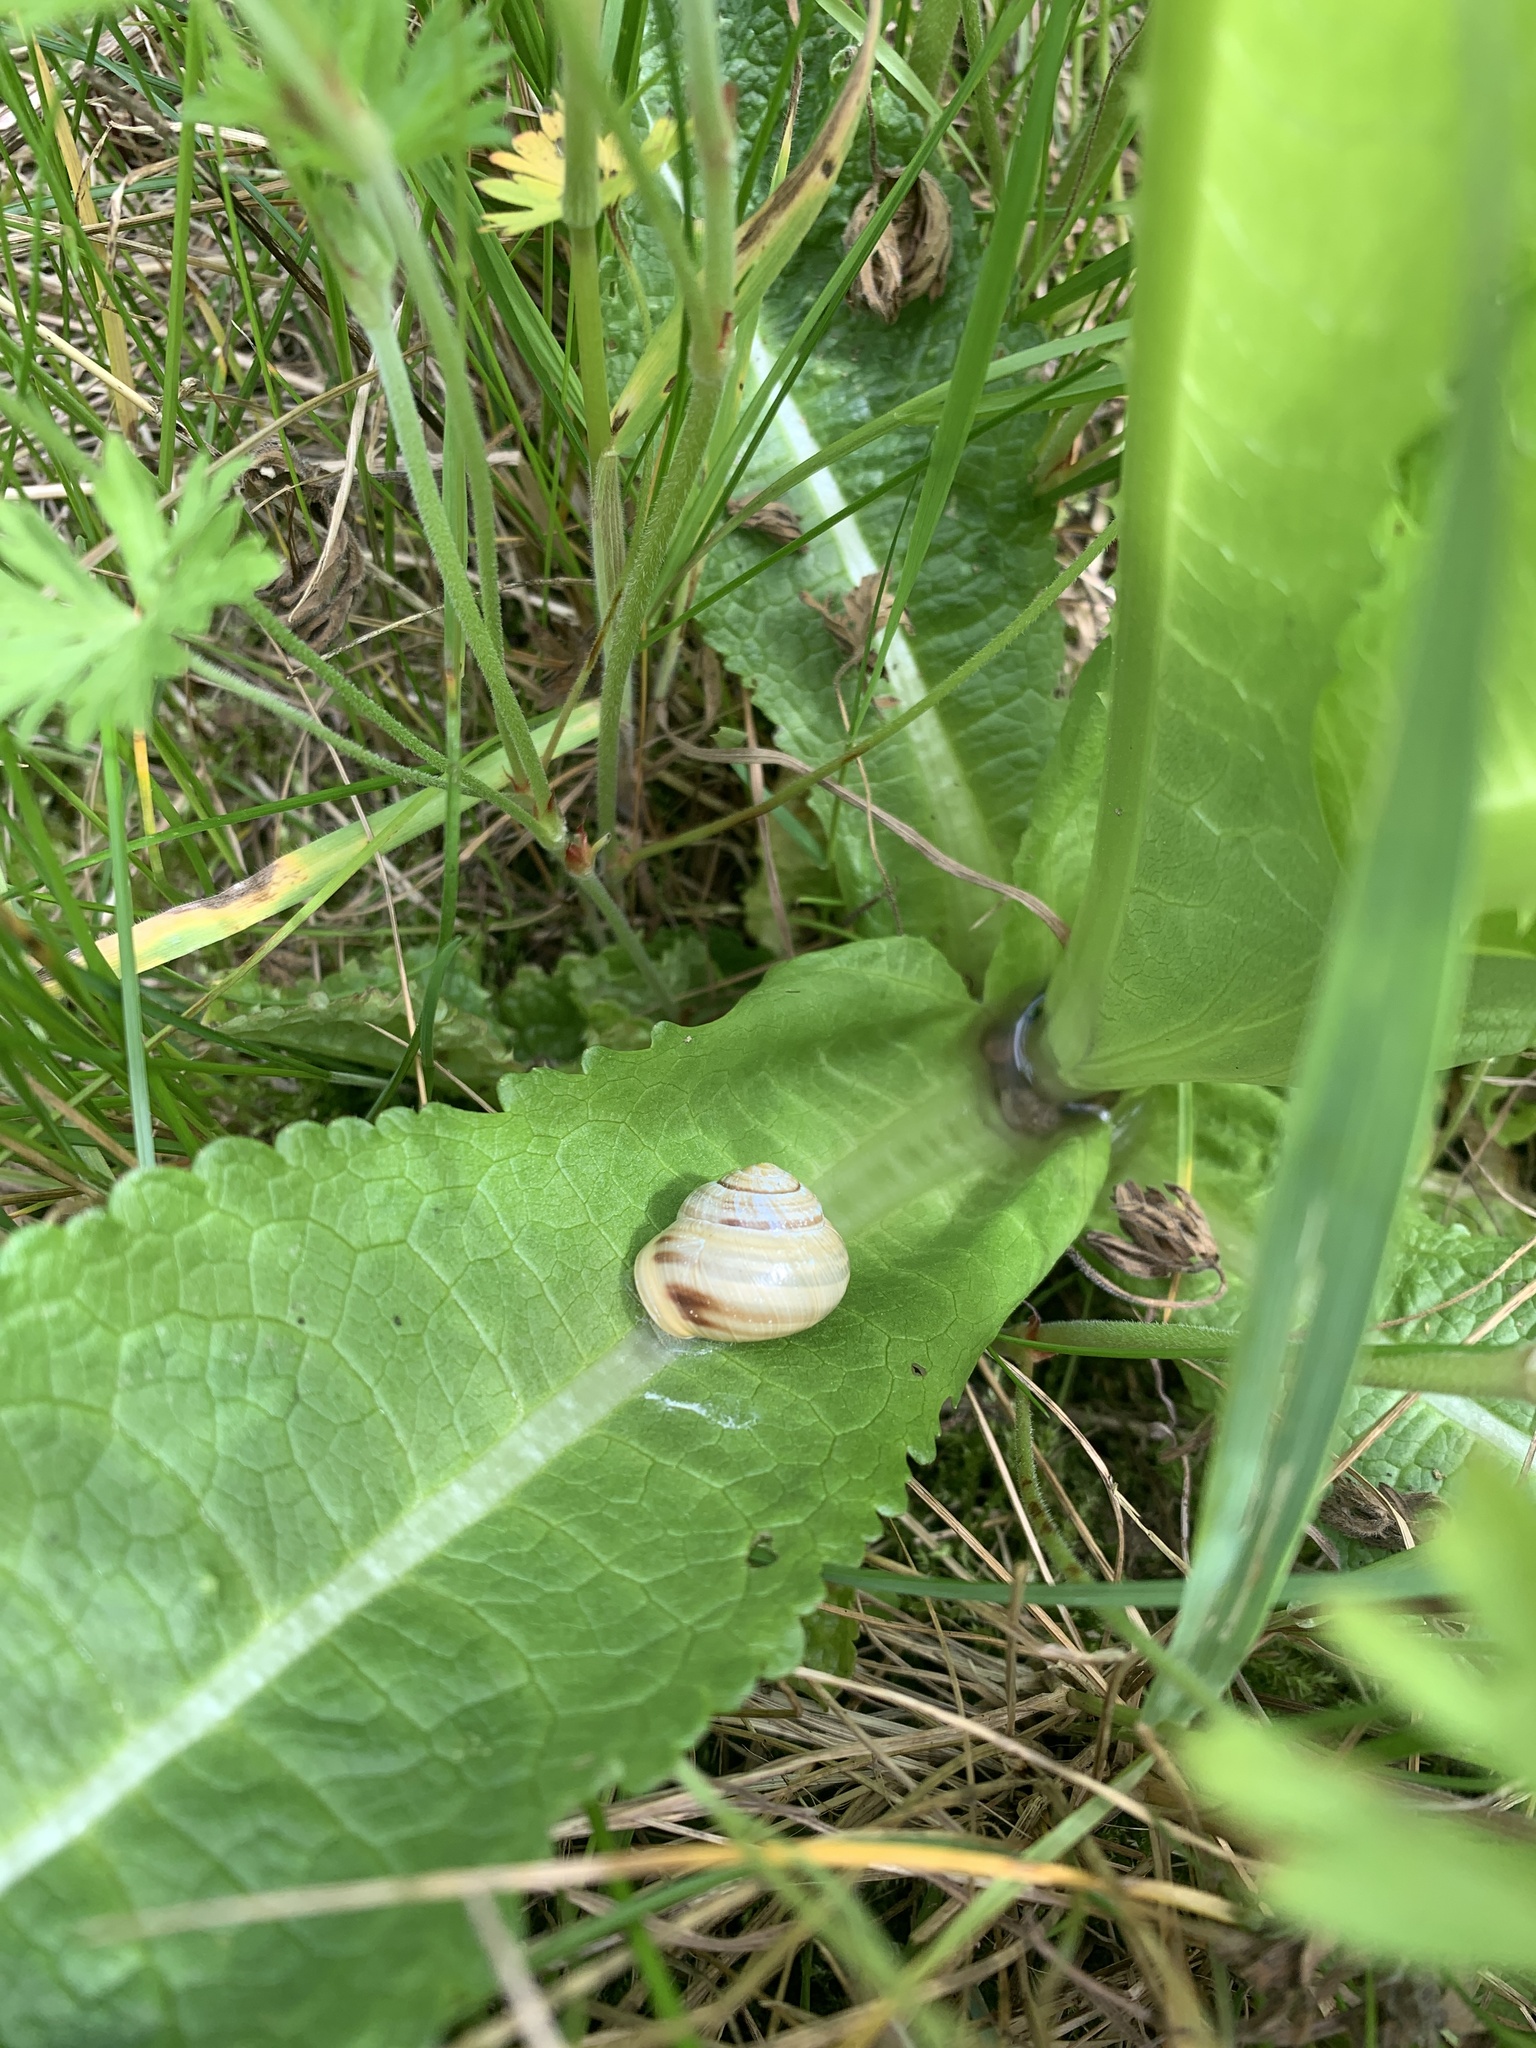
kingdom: Animalia
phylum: Mollusca
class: Gastropoda
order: Stylommatophora
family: Helicidae
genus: Cepaea
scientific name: Cepaea hortensis
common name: White-lip gardensnail
